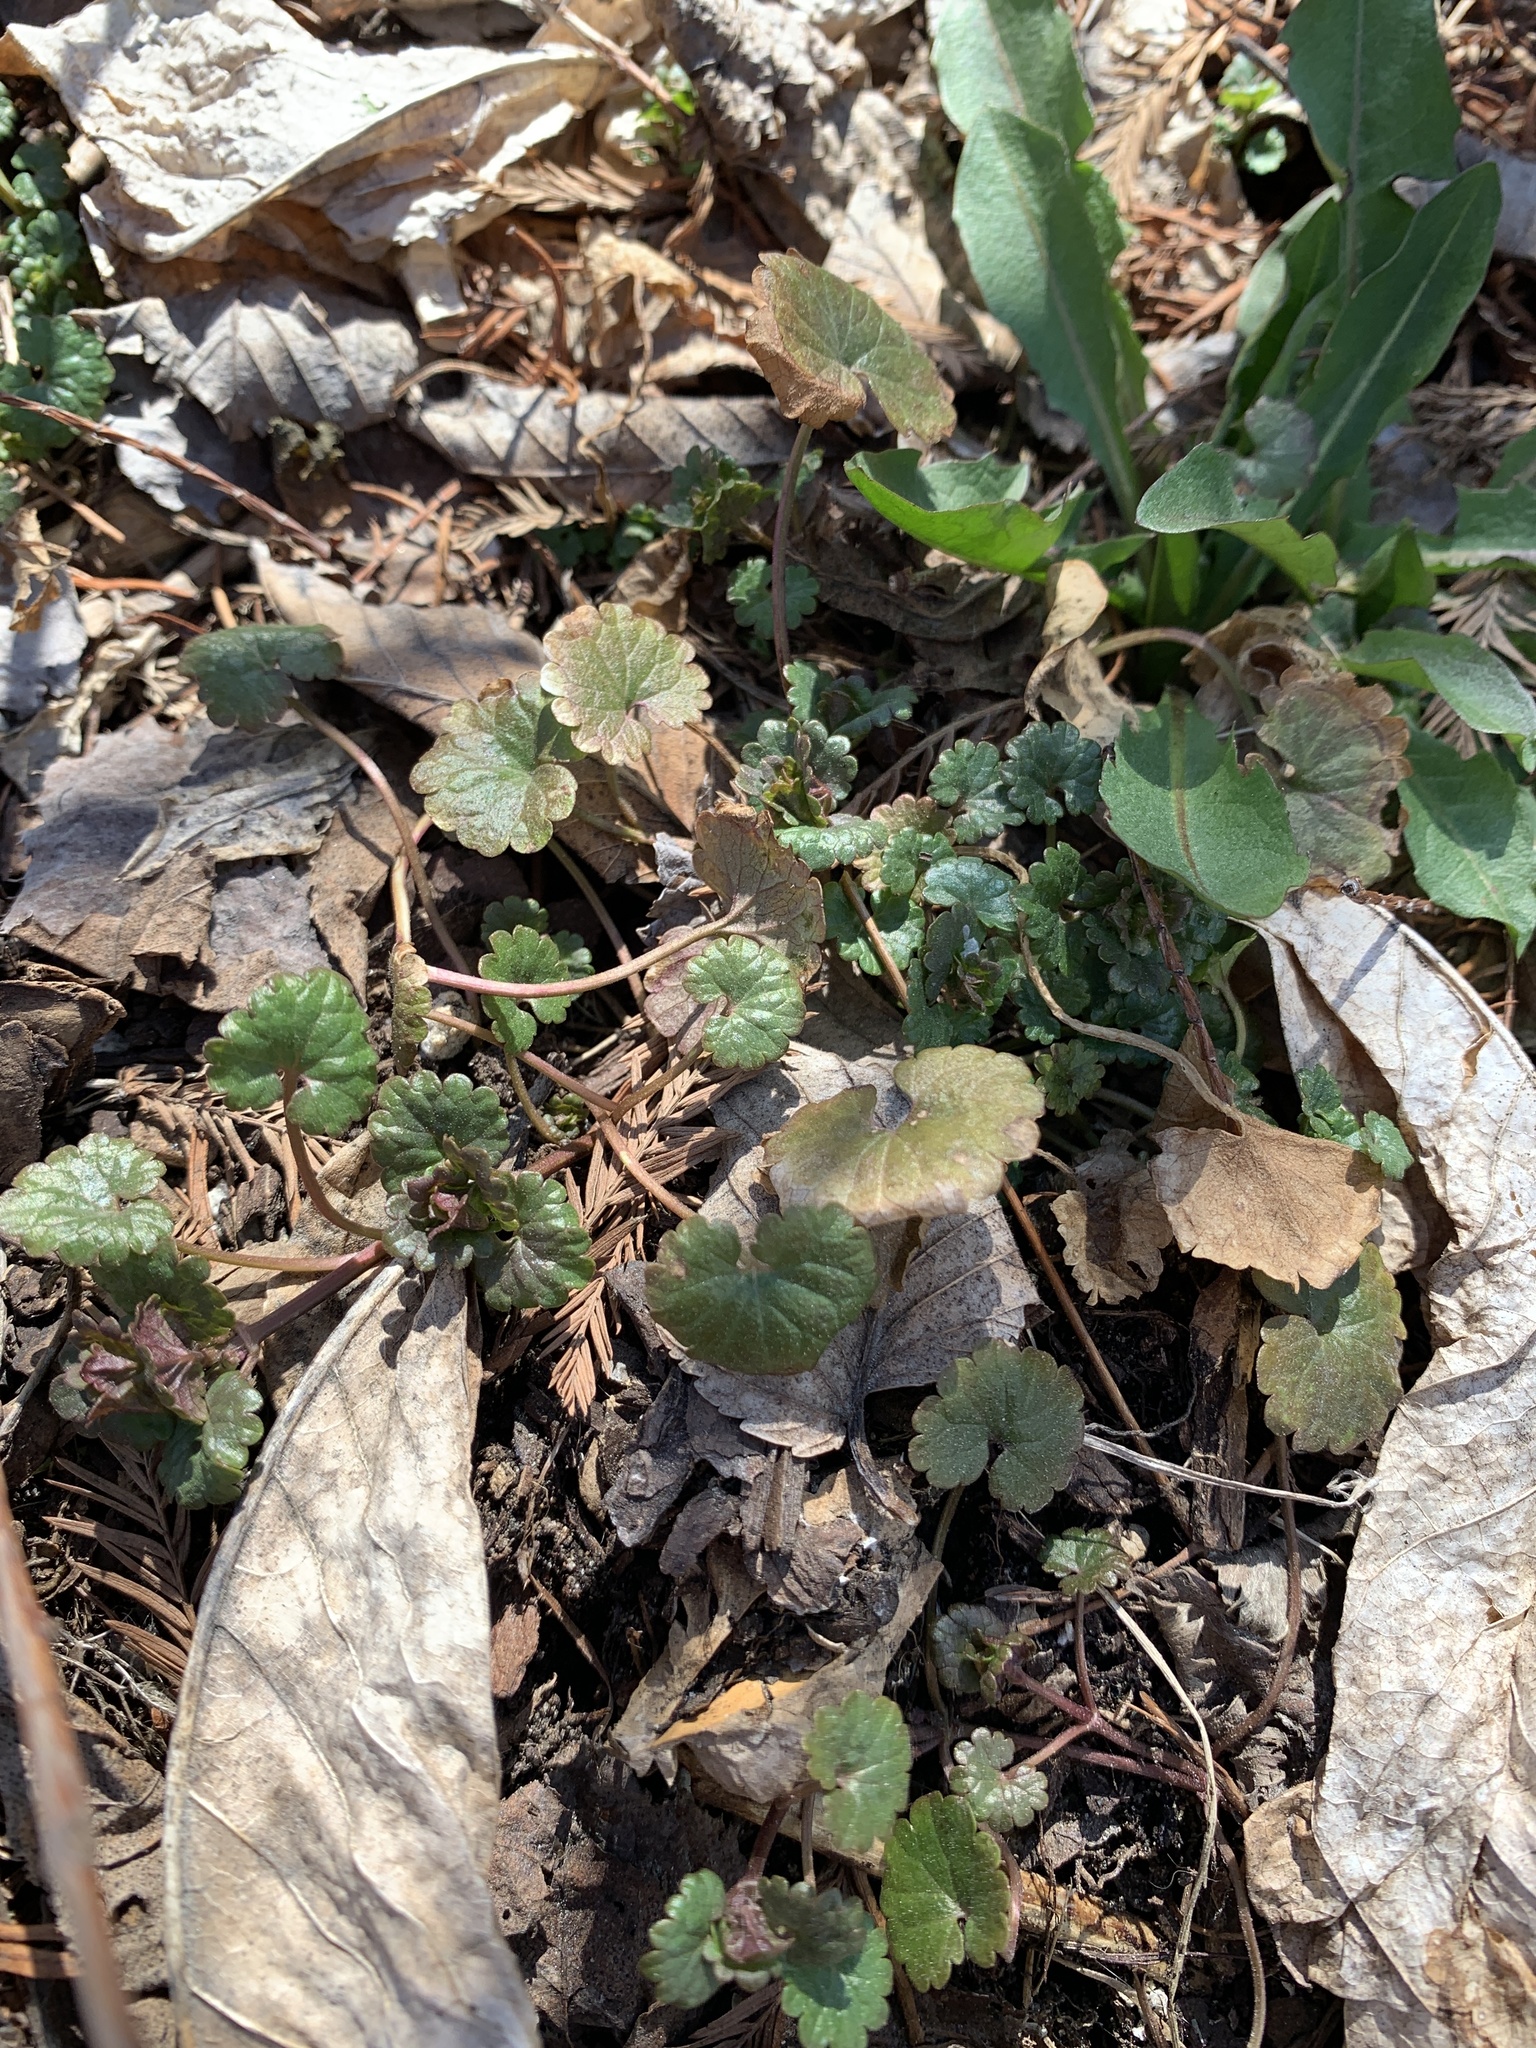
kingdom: Plantae
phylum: Tracheophyta
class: Magnoliopsida
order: Lamiales
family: Lamiaceae
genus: Glechoma
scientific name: Glechoma hederacea
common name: Ground ivy
